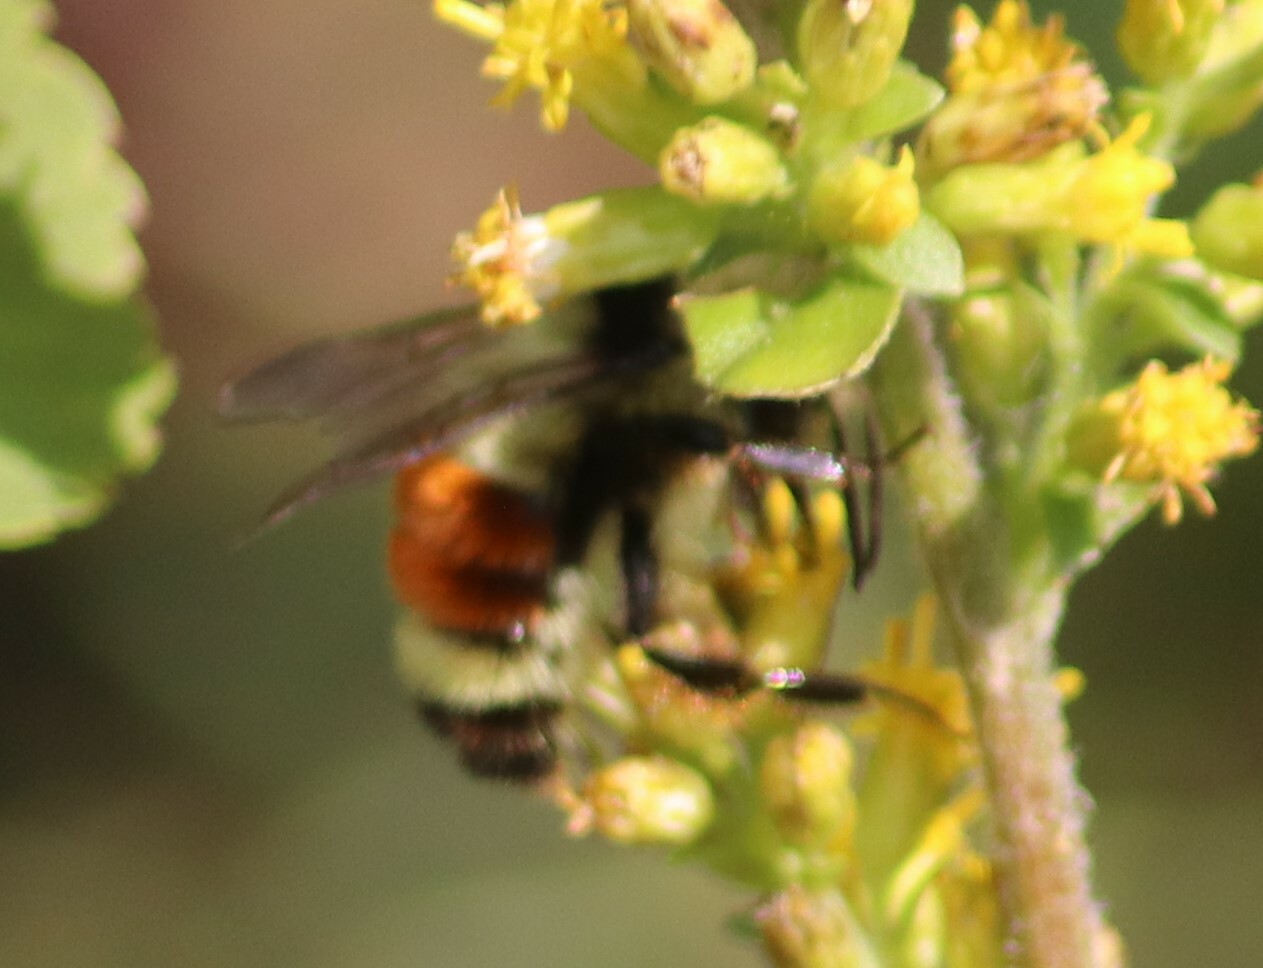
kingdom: Animalia
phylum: Arthropoda
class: Insecta
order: Hymenoptera
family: Apidae
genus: Bombus
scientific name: Bombus ternarius
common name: Tri-colored bumble bee
